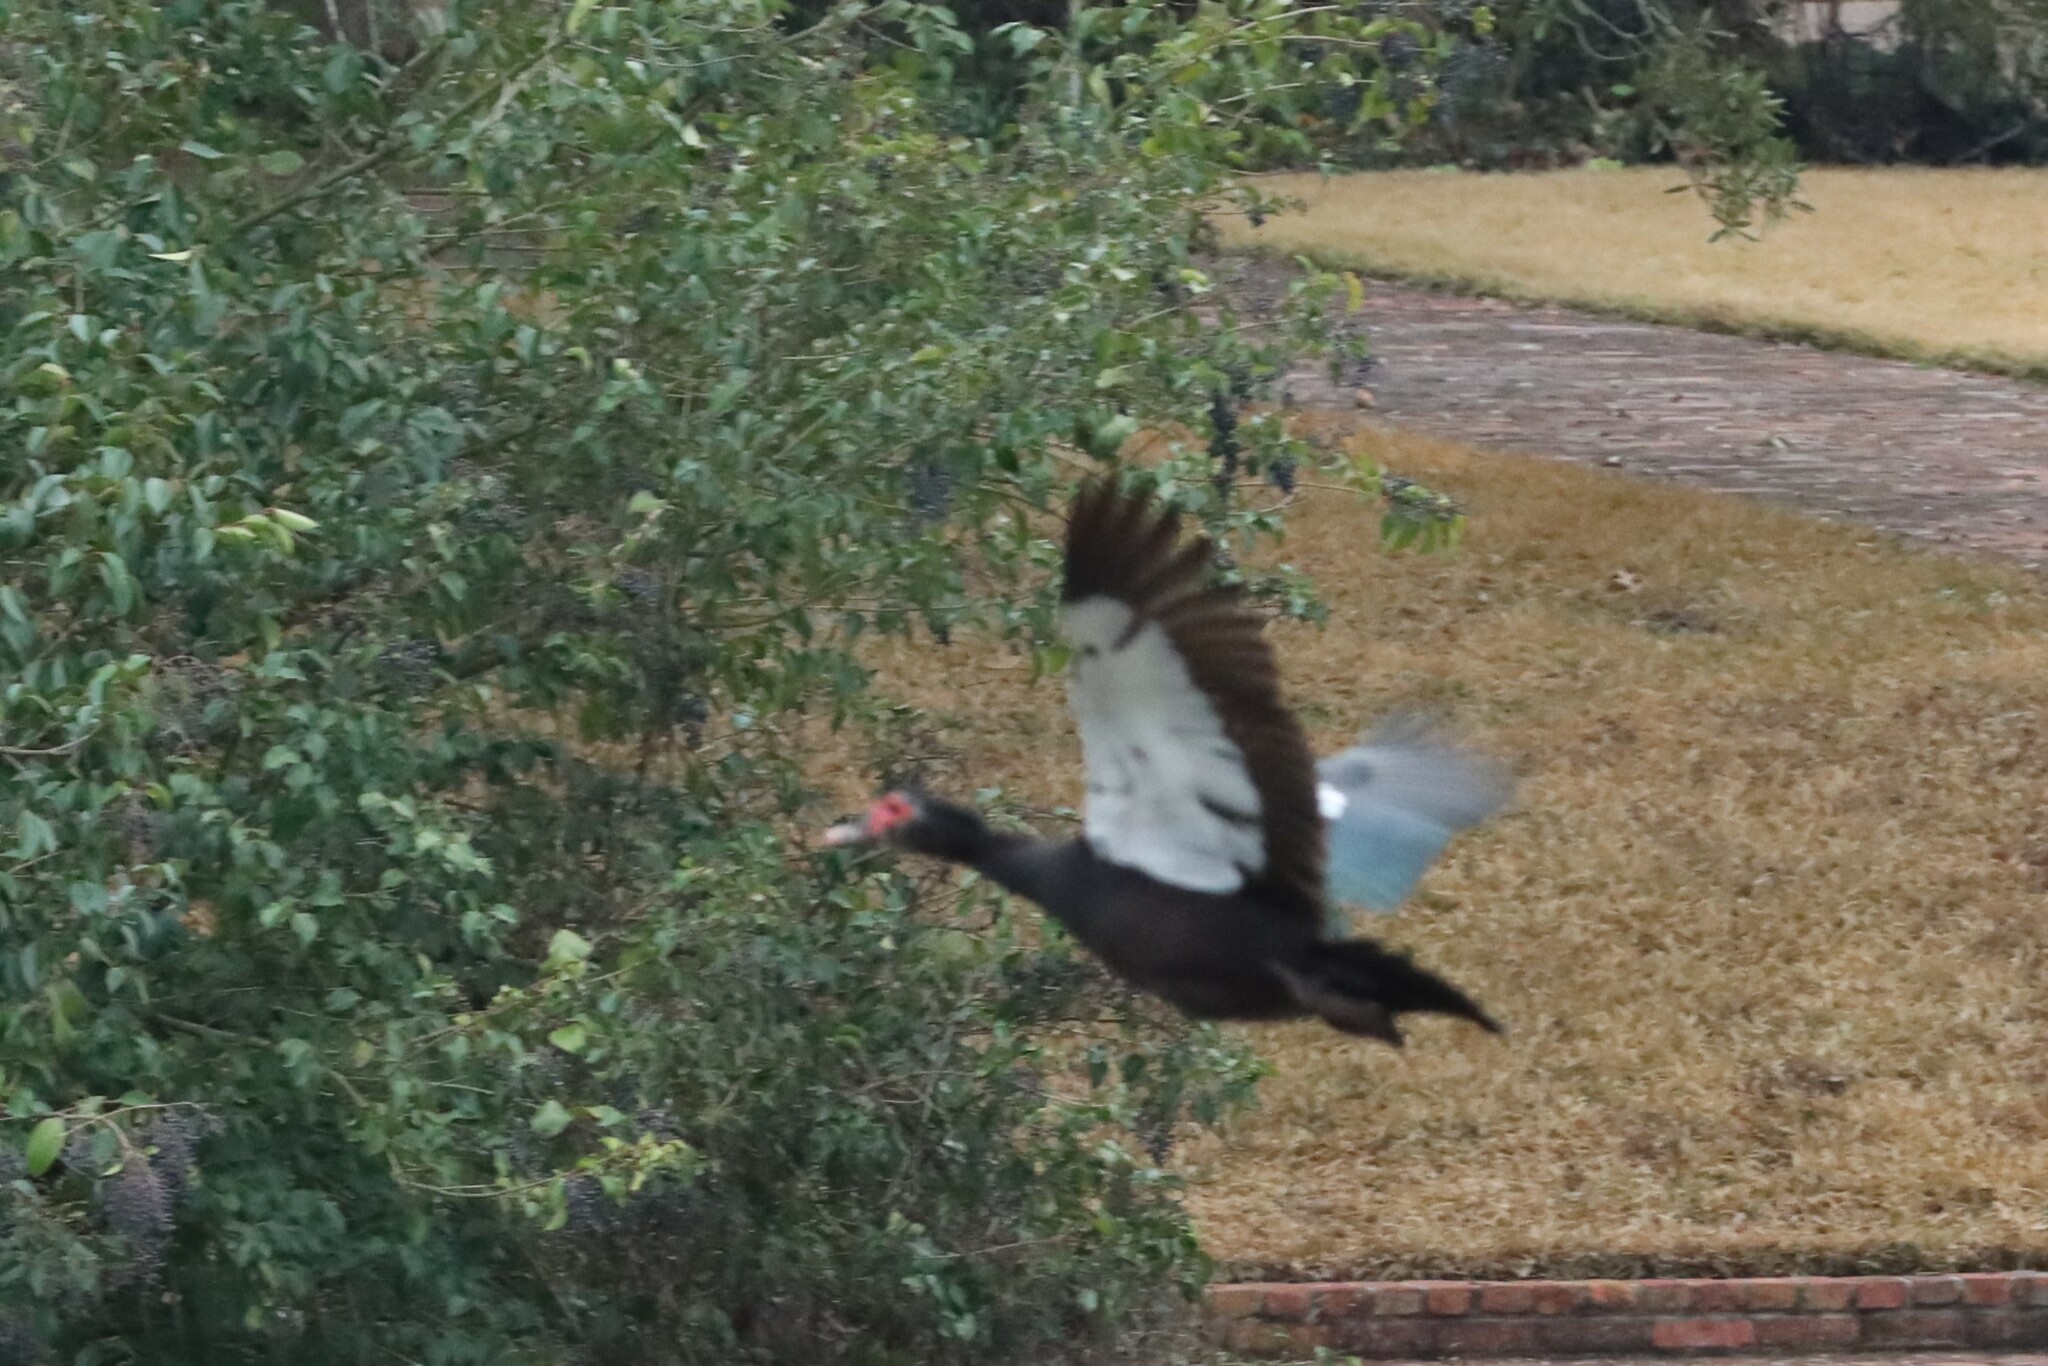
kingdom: Animalia
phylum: Chordata
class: Aves
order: Anseriformes
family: Anatidae
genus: Cairina
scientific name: Cairina moschata
